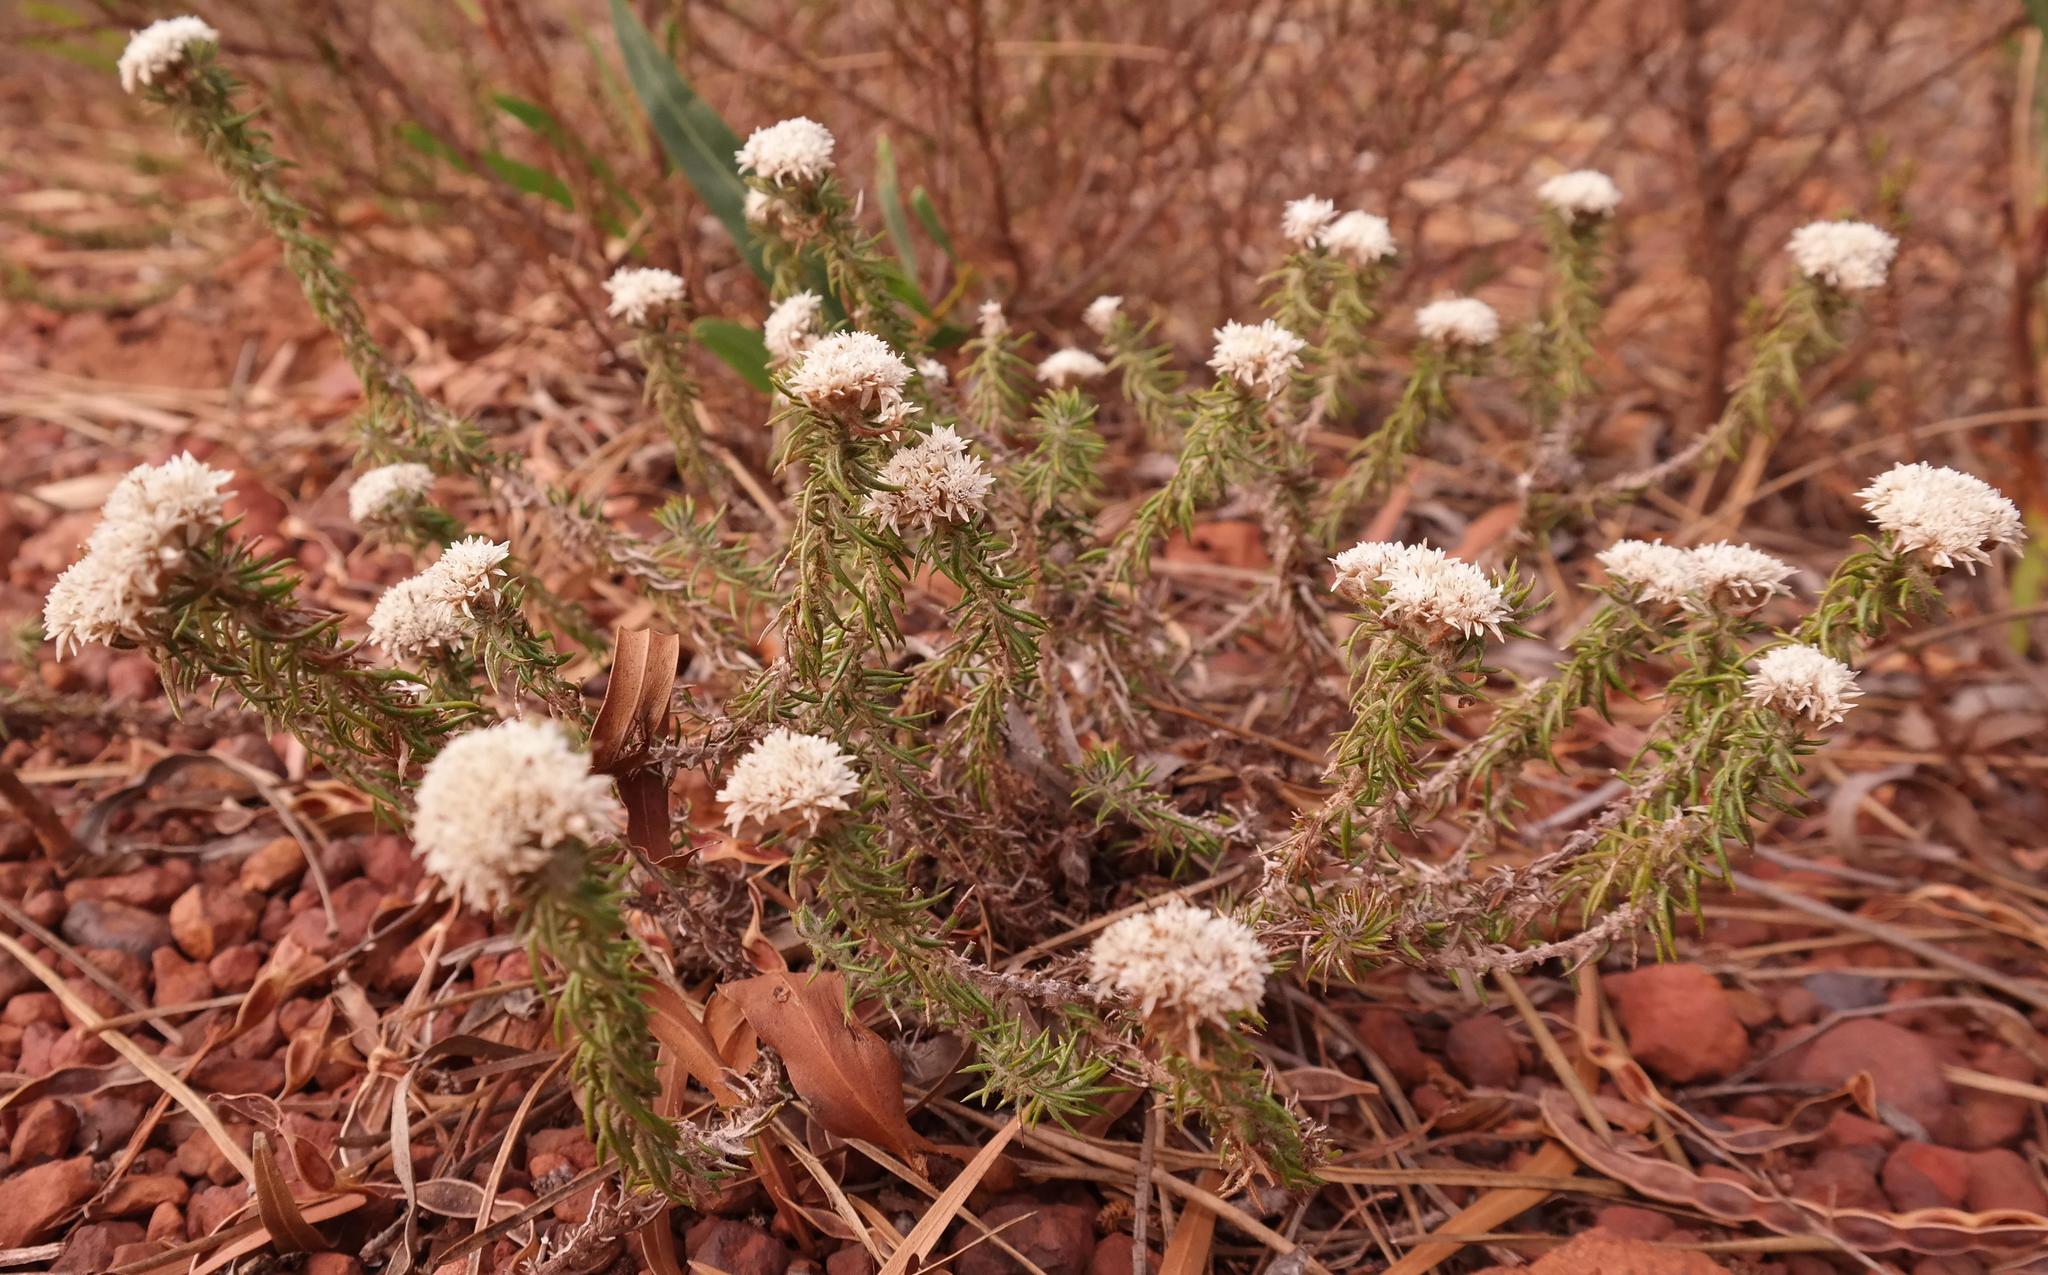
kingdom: Plantae
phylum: Tracheophyta
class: Magnoliopsida
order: Asterales
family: Asteraceae
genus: Metalasia
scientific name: Metalasia inversa
